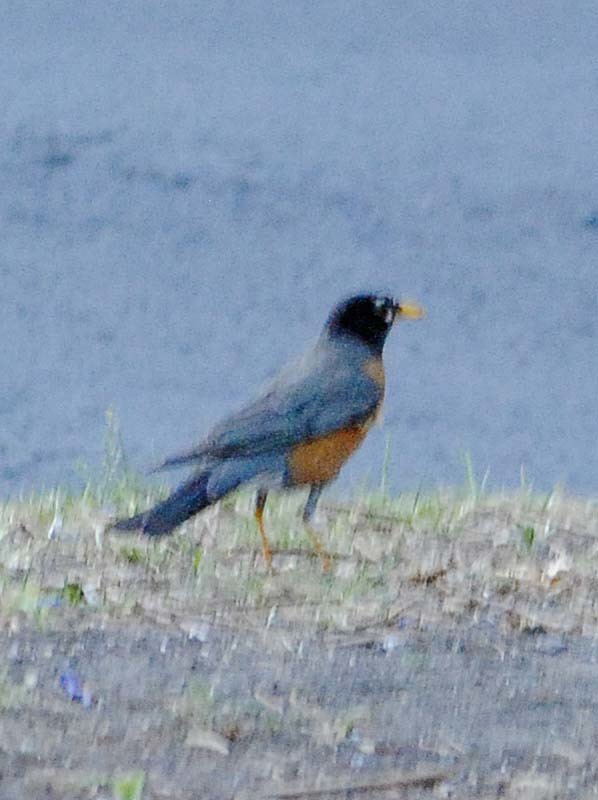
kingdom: Animalia
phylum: Chordata
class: Aves
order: Passeriformes
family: Turdidae
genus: Turdus
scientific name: Turdus migratorius
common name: American robin
